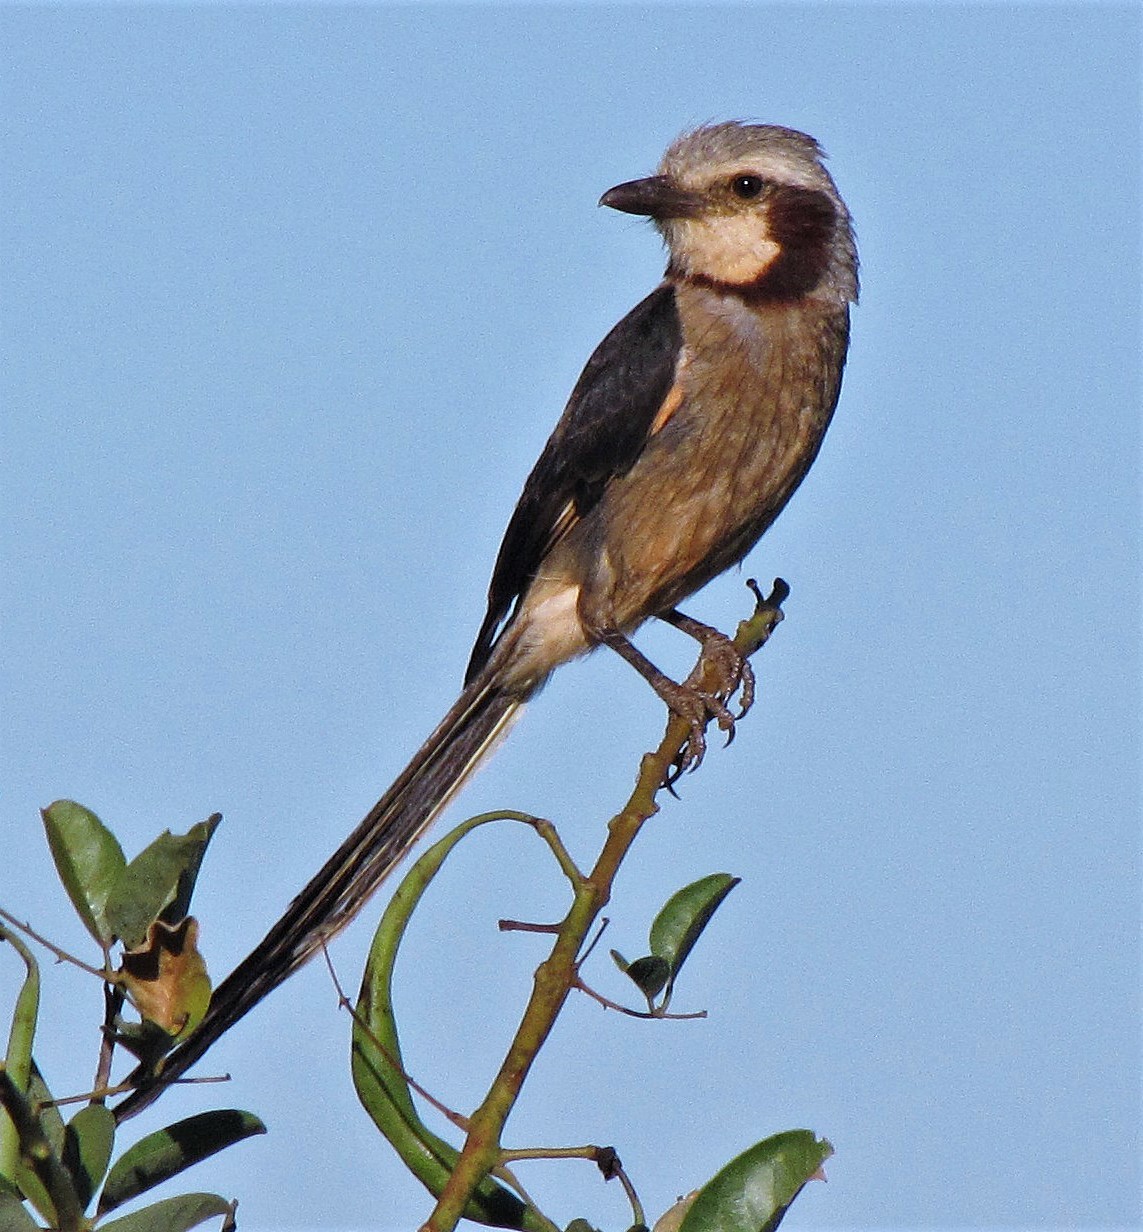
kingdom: Animalia
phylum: Chordata
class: Aves
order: Passeriformes
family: Tyrannidae
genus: Gubernetes
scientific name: Gubernetes yetapa
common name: Streamer-tailed tyrant
